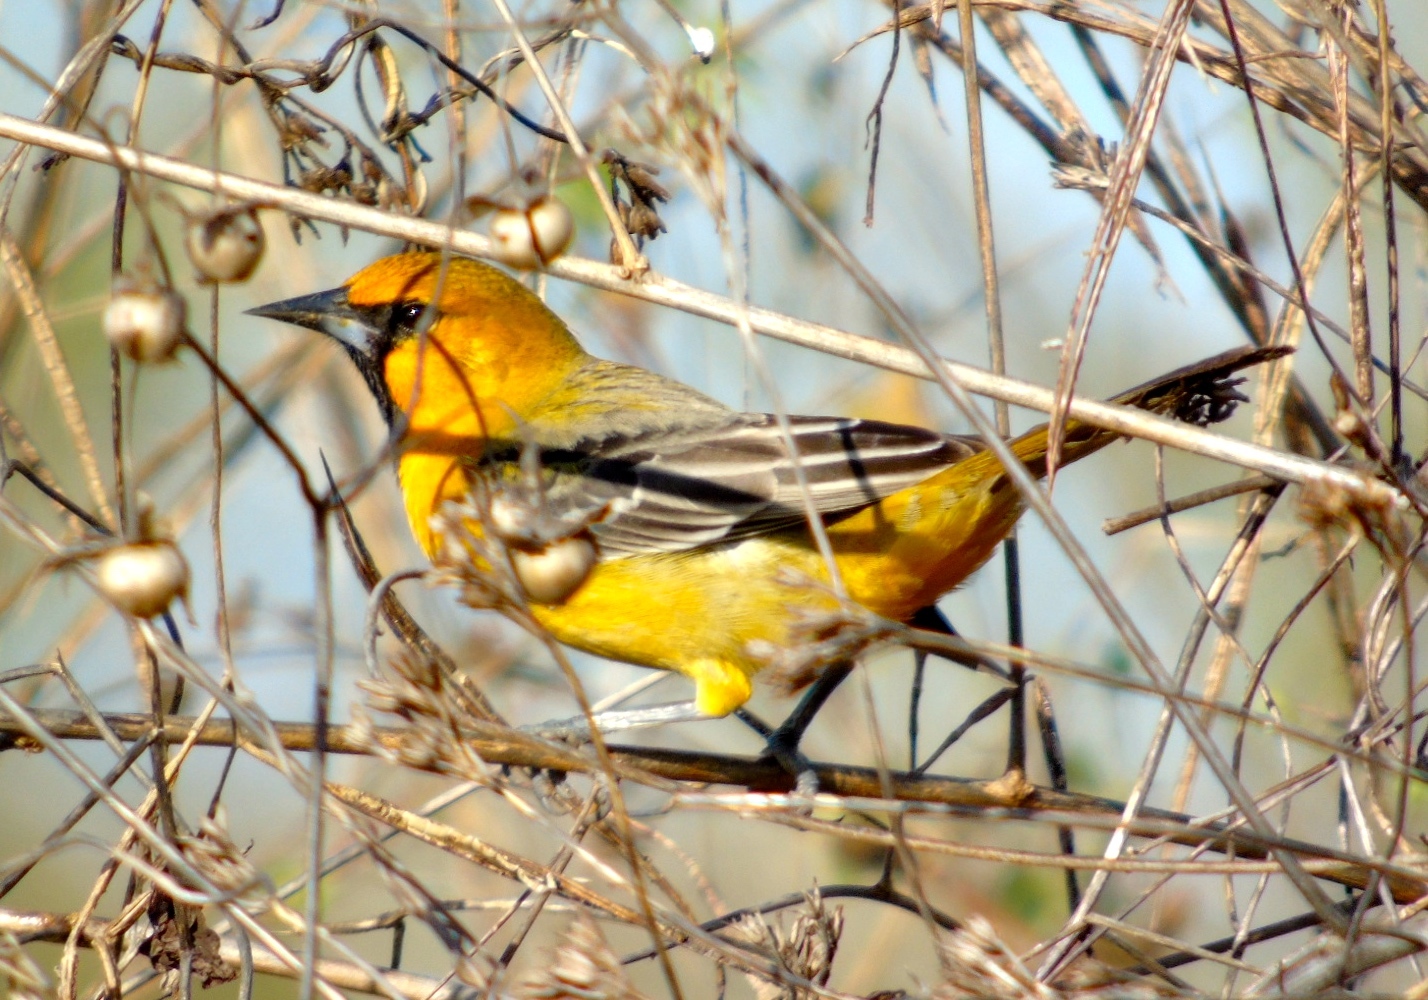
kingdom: Animalia
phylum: Chordata
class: Aves
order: Passeriformes
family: Icteridae
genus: Icterus
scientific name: Icterus pustulatus
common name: Streak-backed oriole
